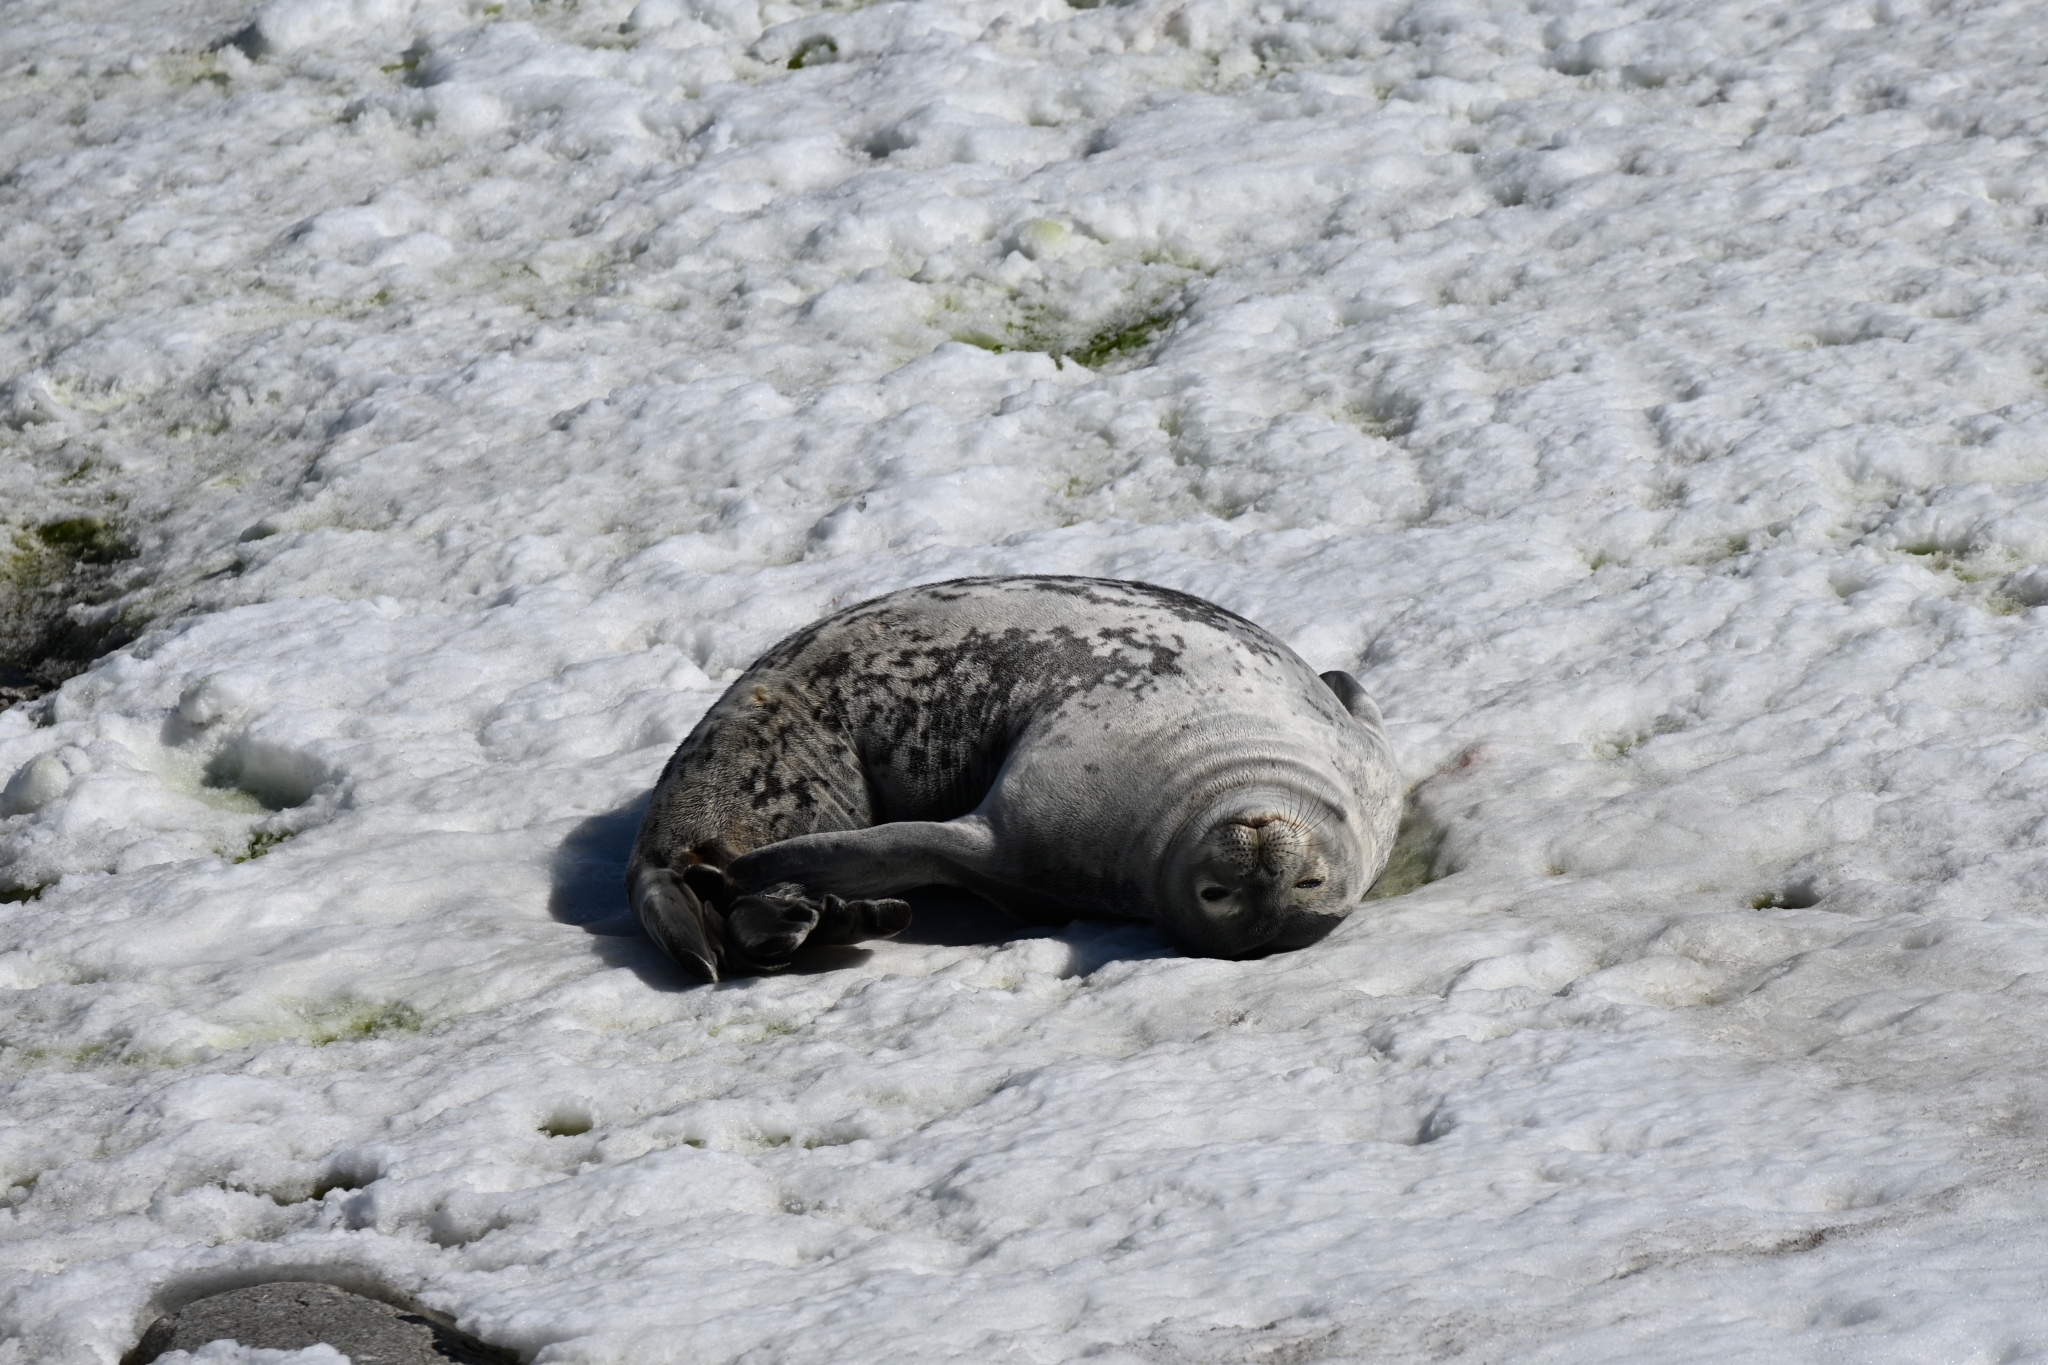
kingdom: Animalia
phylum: Chordata
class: Mammalia
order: Carnivora
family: Phocidae
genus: Leptonychotes
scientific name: Leptonychotes weddellii
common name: Weddell seal
